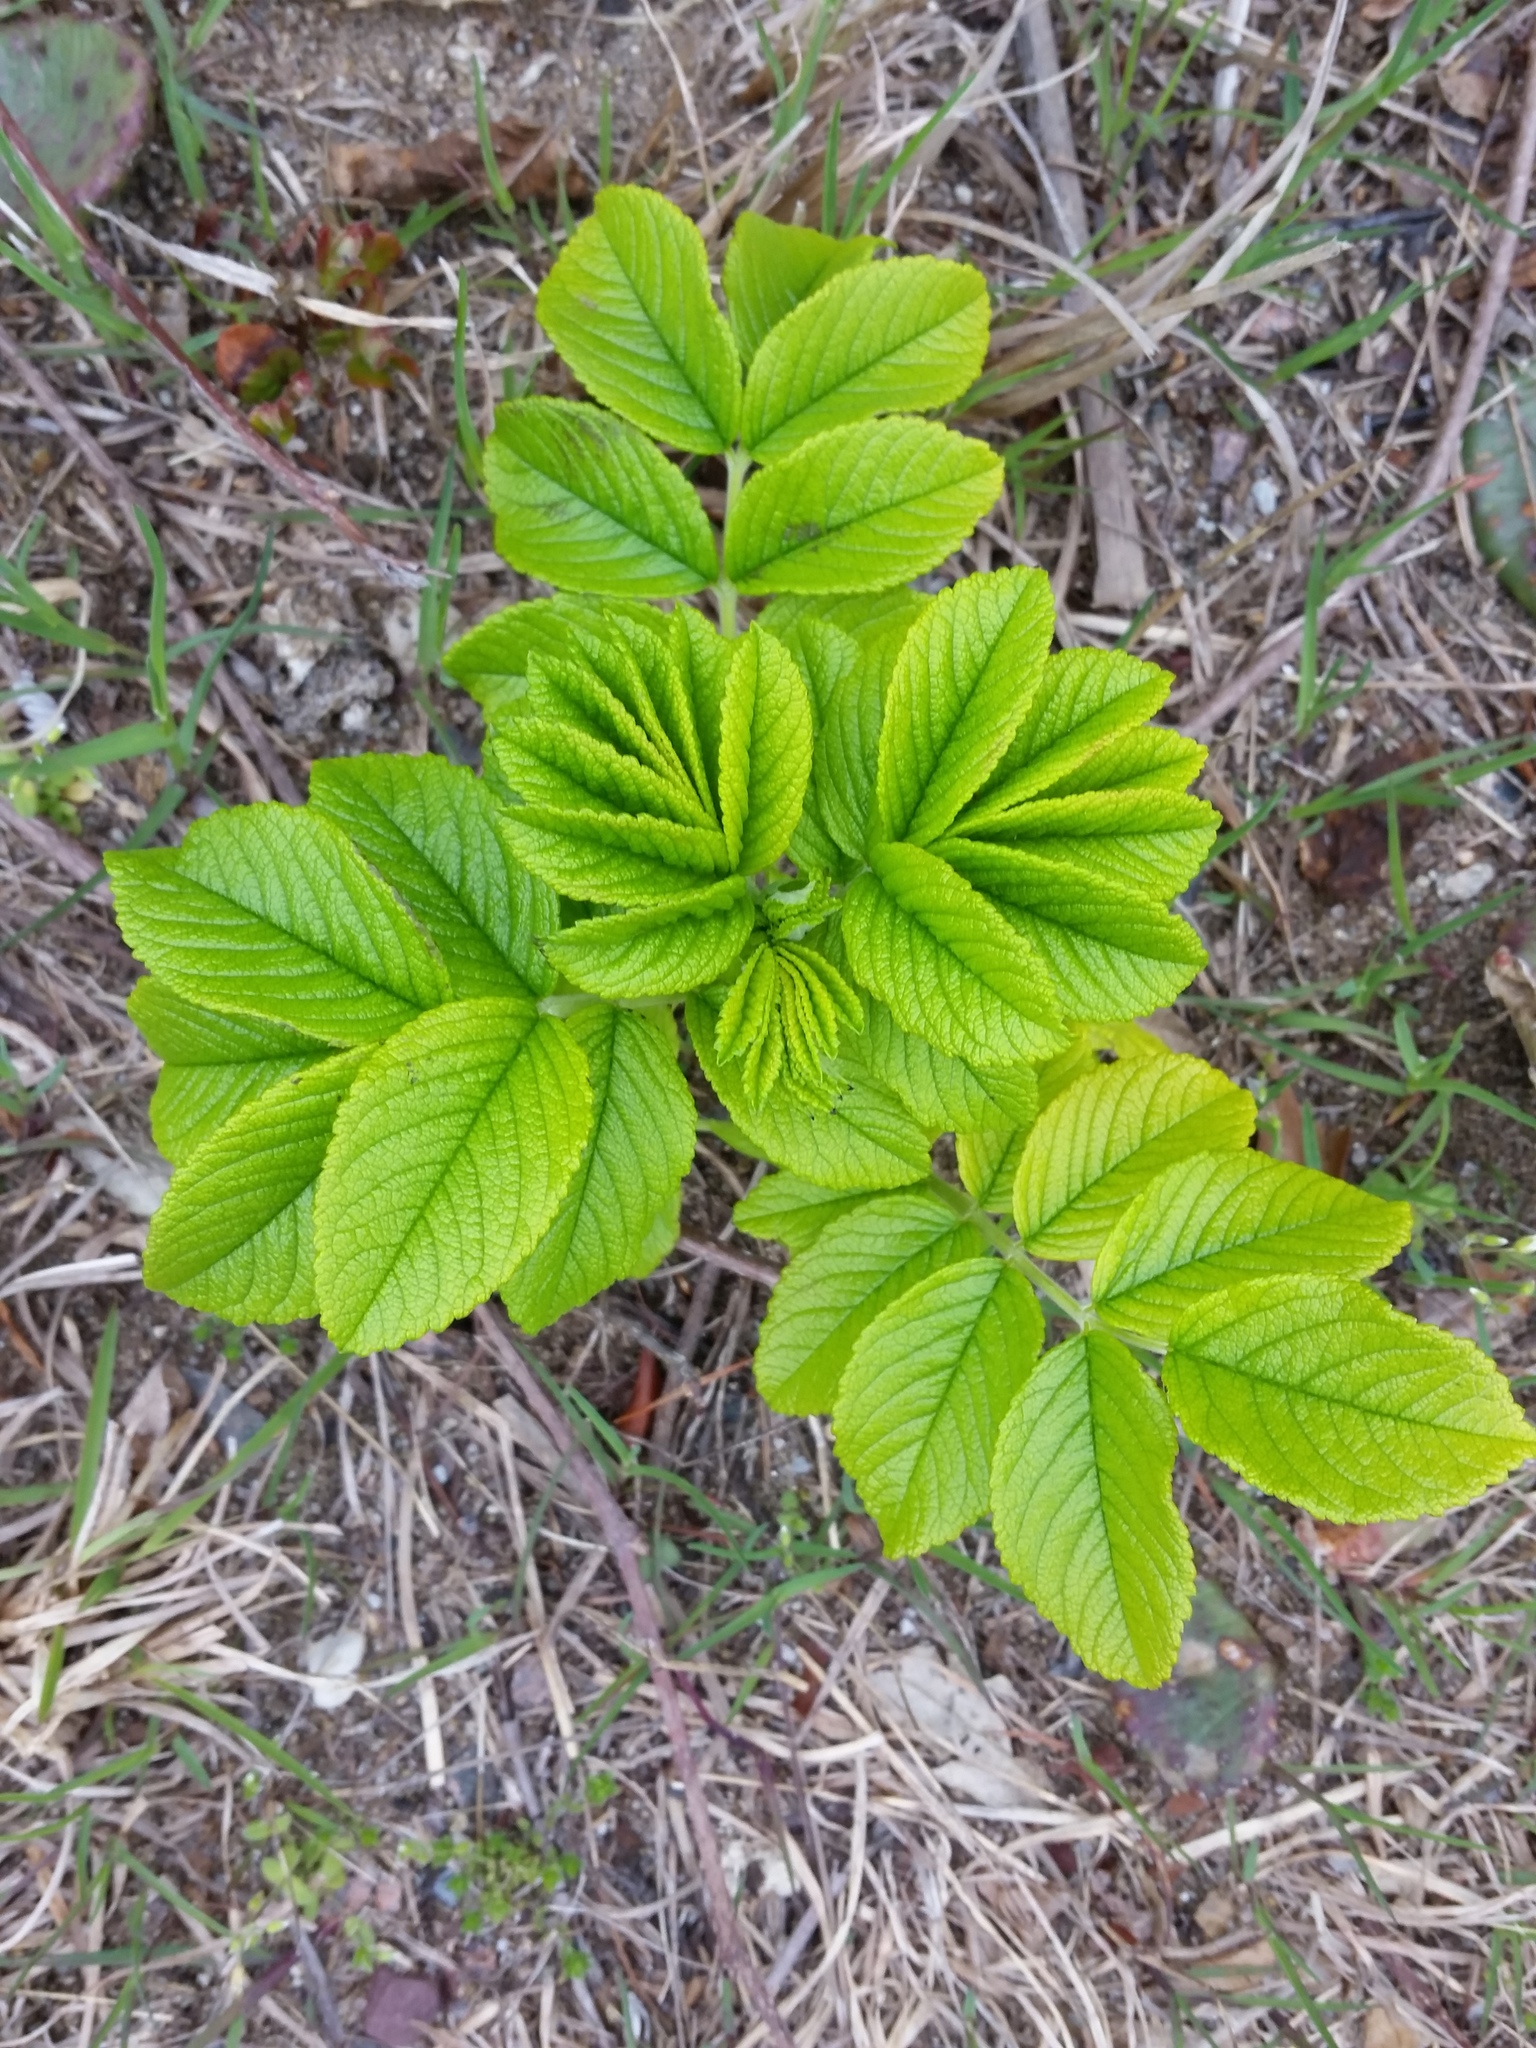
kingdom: Plantae
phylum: Tracheophyta
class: Magnoliopsida
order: Rosales
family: Rosaceae
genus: Rosa
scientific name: Rosa rugosa
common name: Japanese rose
